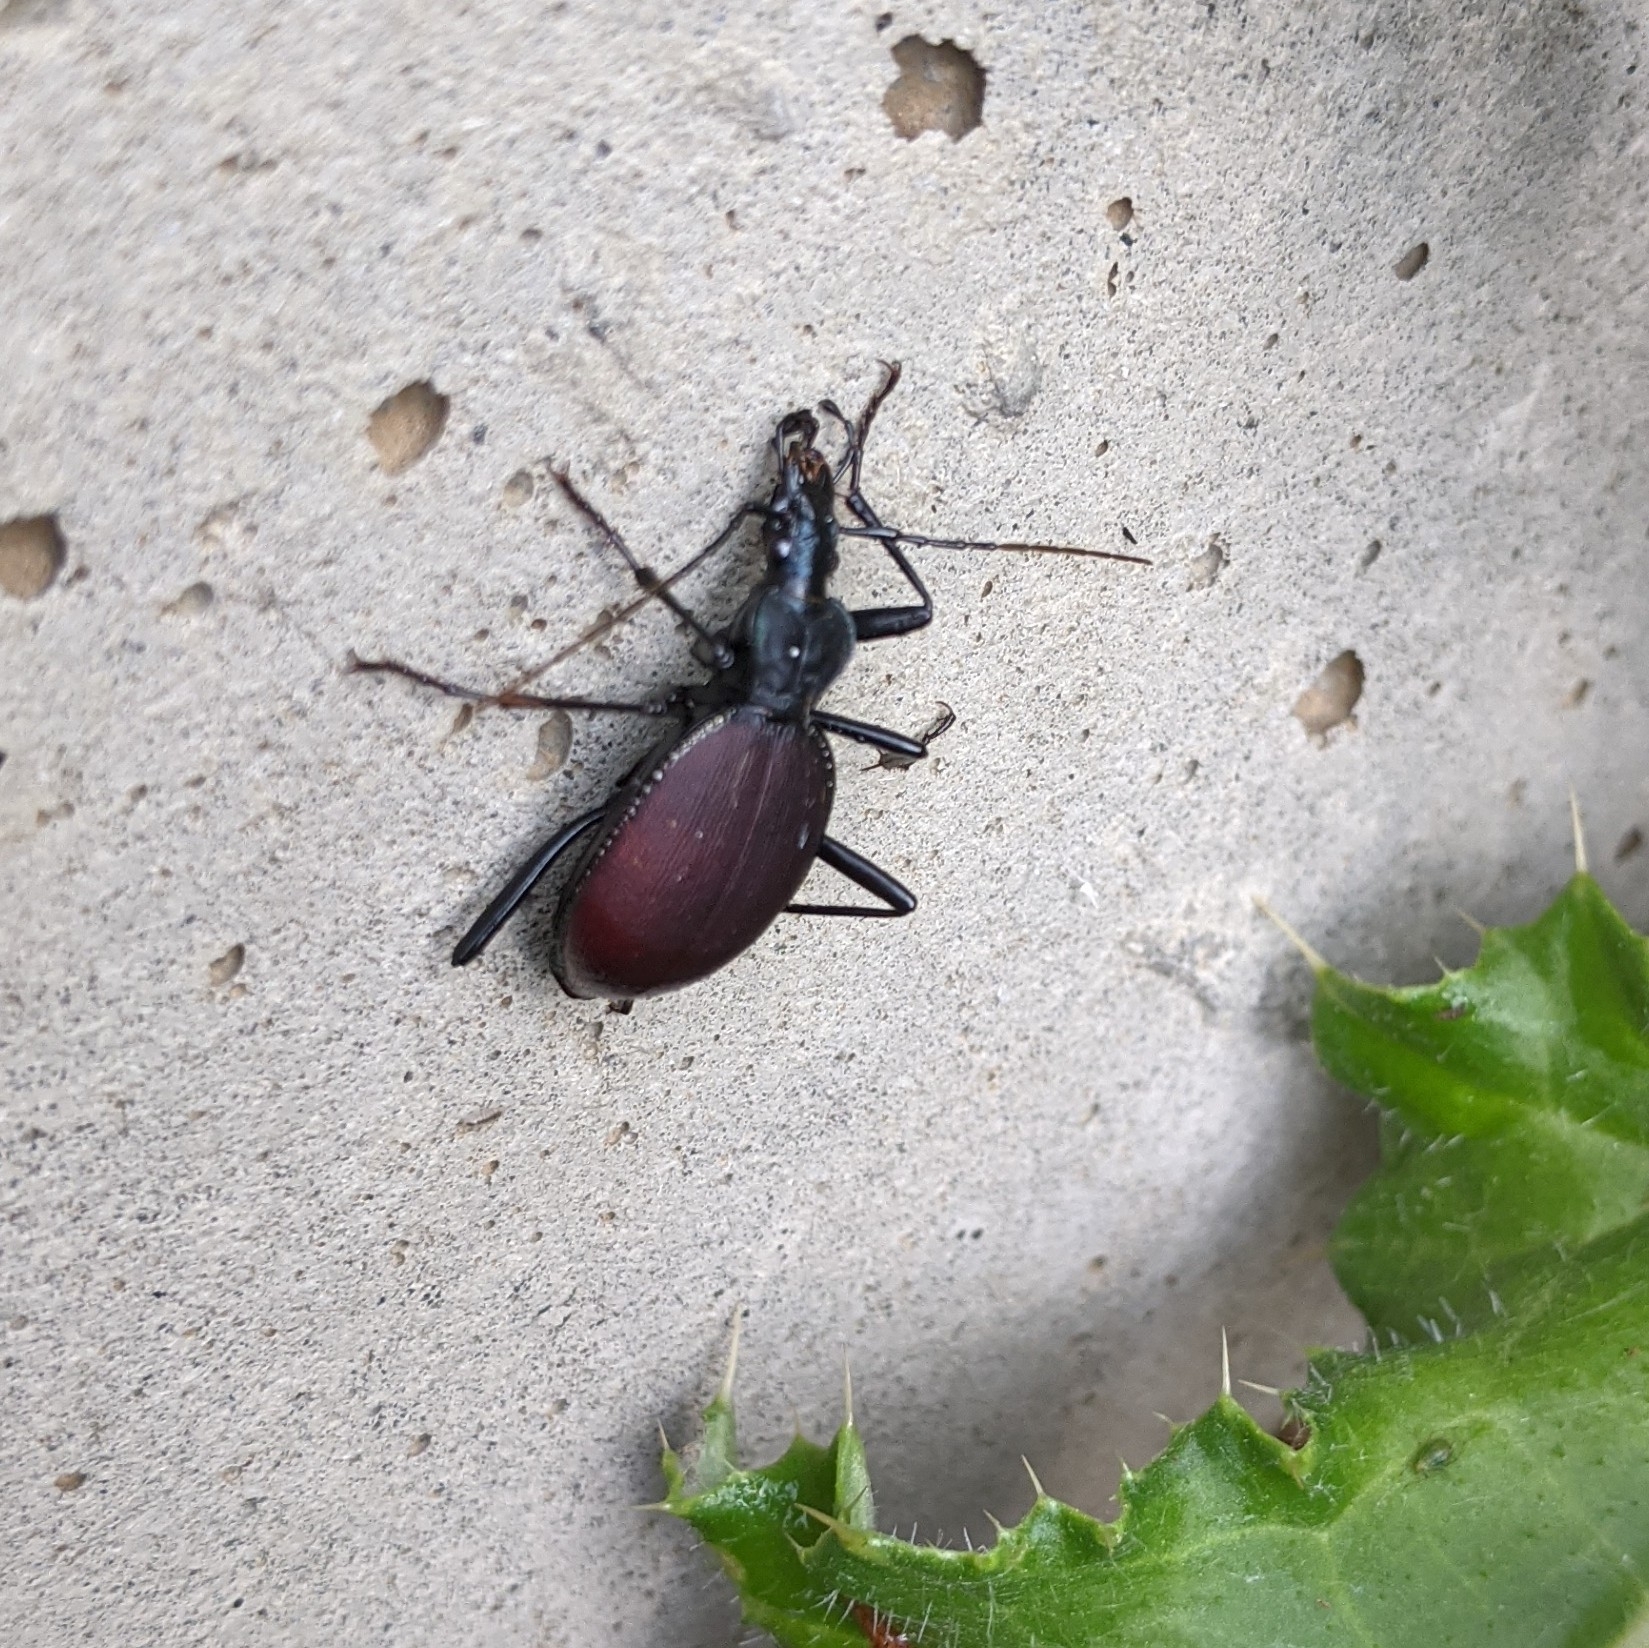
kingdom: Animalia
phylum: Arthropoda
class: Insecta
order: Coleoptera
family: Carabidae
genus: Scaphinotus
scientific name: Scaphinotus angusticollis
